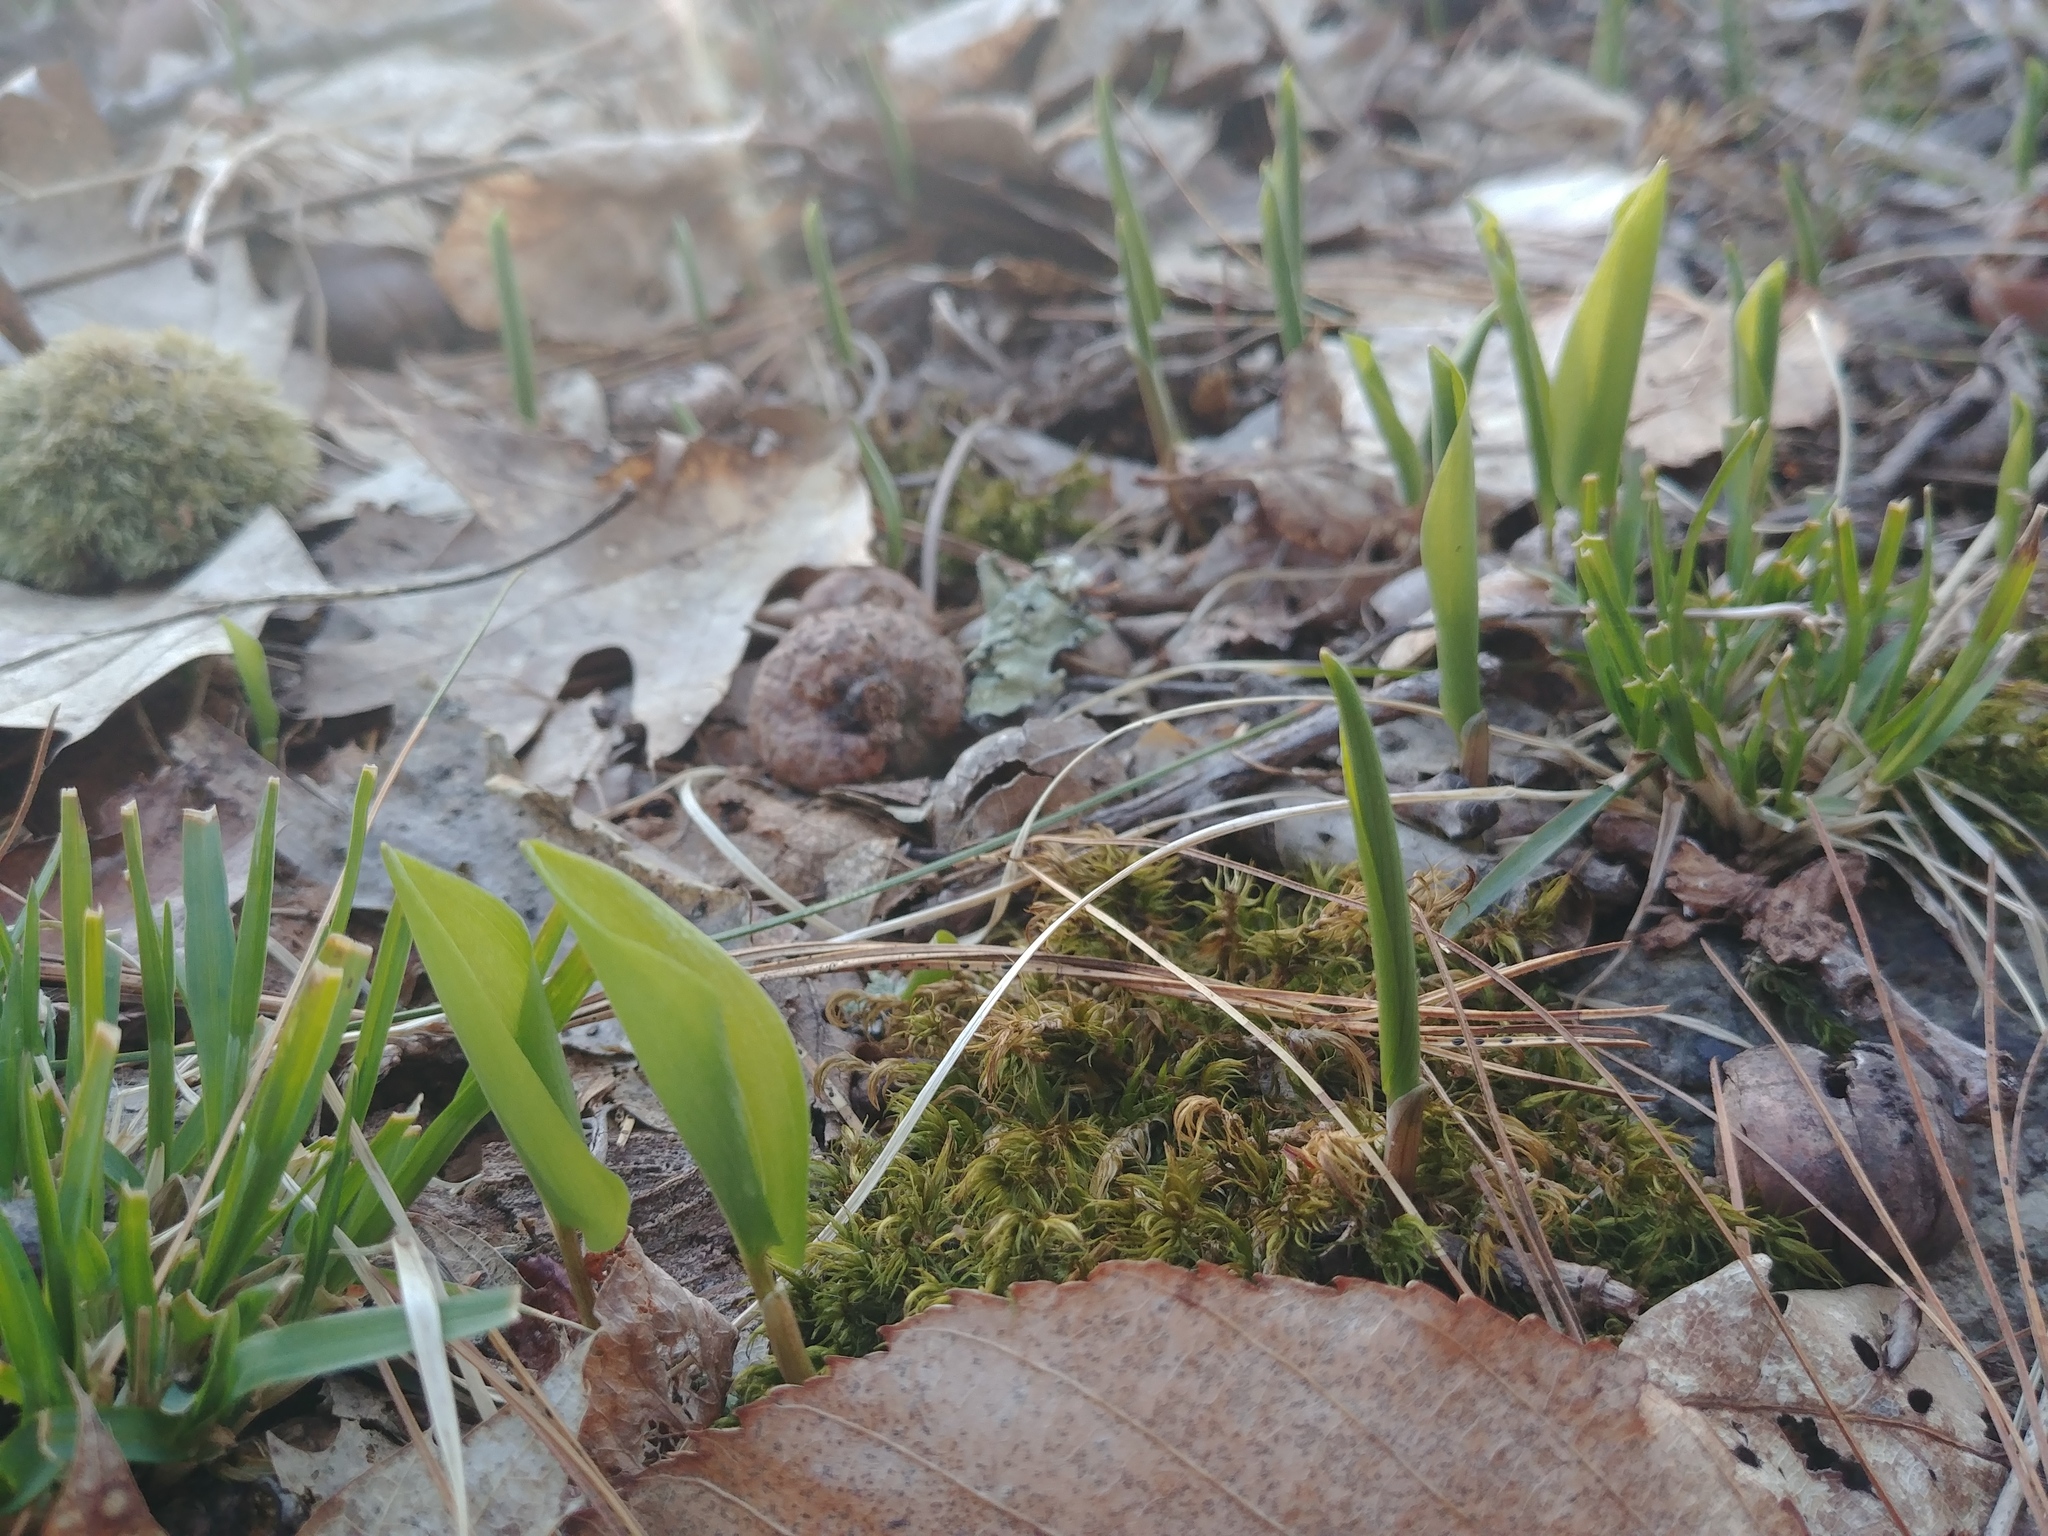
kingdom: Plantae
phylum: Tracheophyta
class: Liliopsida
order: Asparagales
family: Asparagaceae
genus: Maianthemum
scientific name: Maianthemum canadense
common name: False lily-of-the-valley
